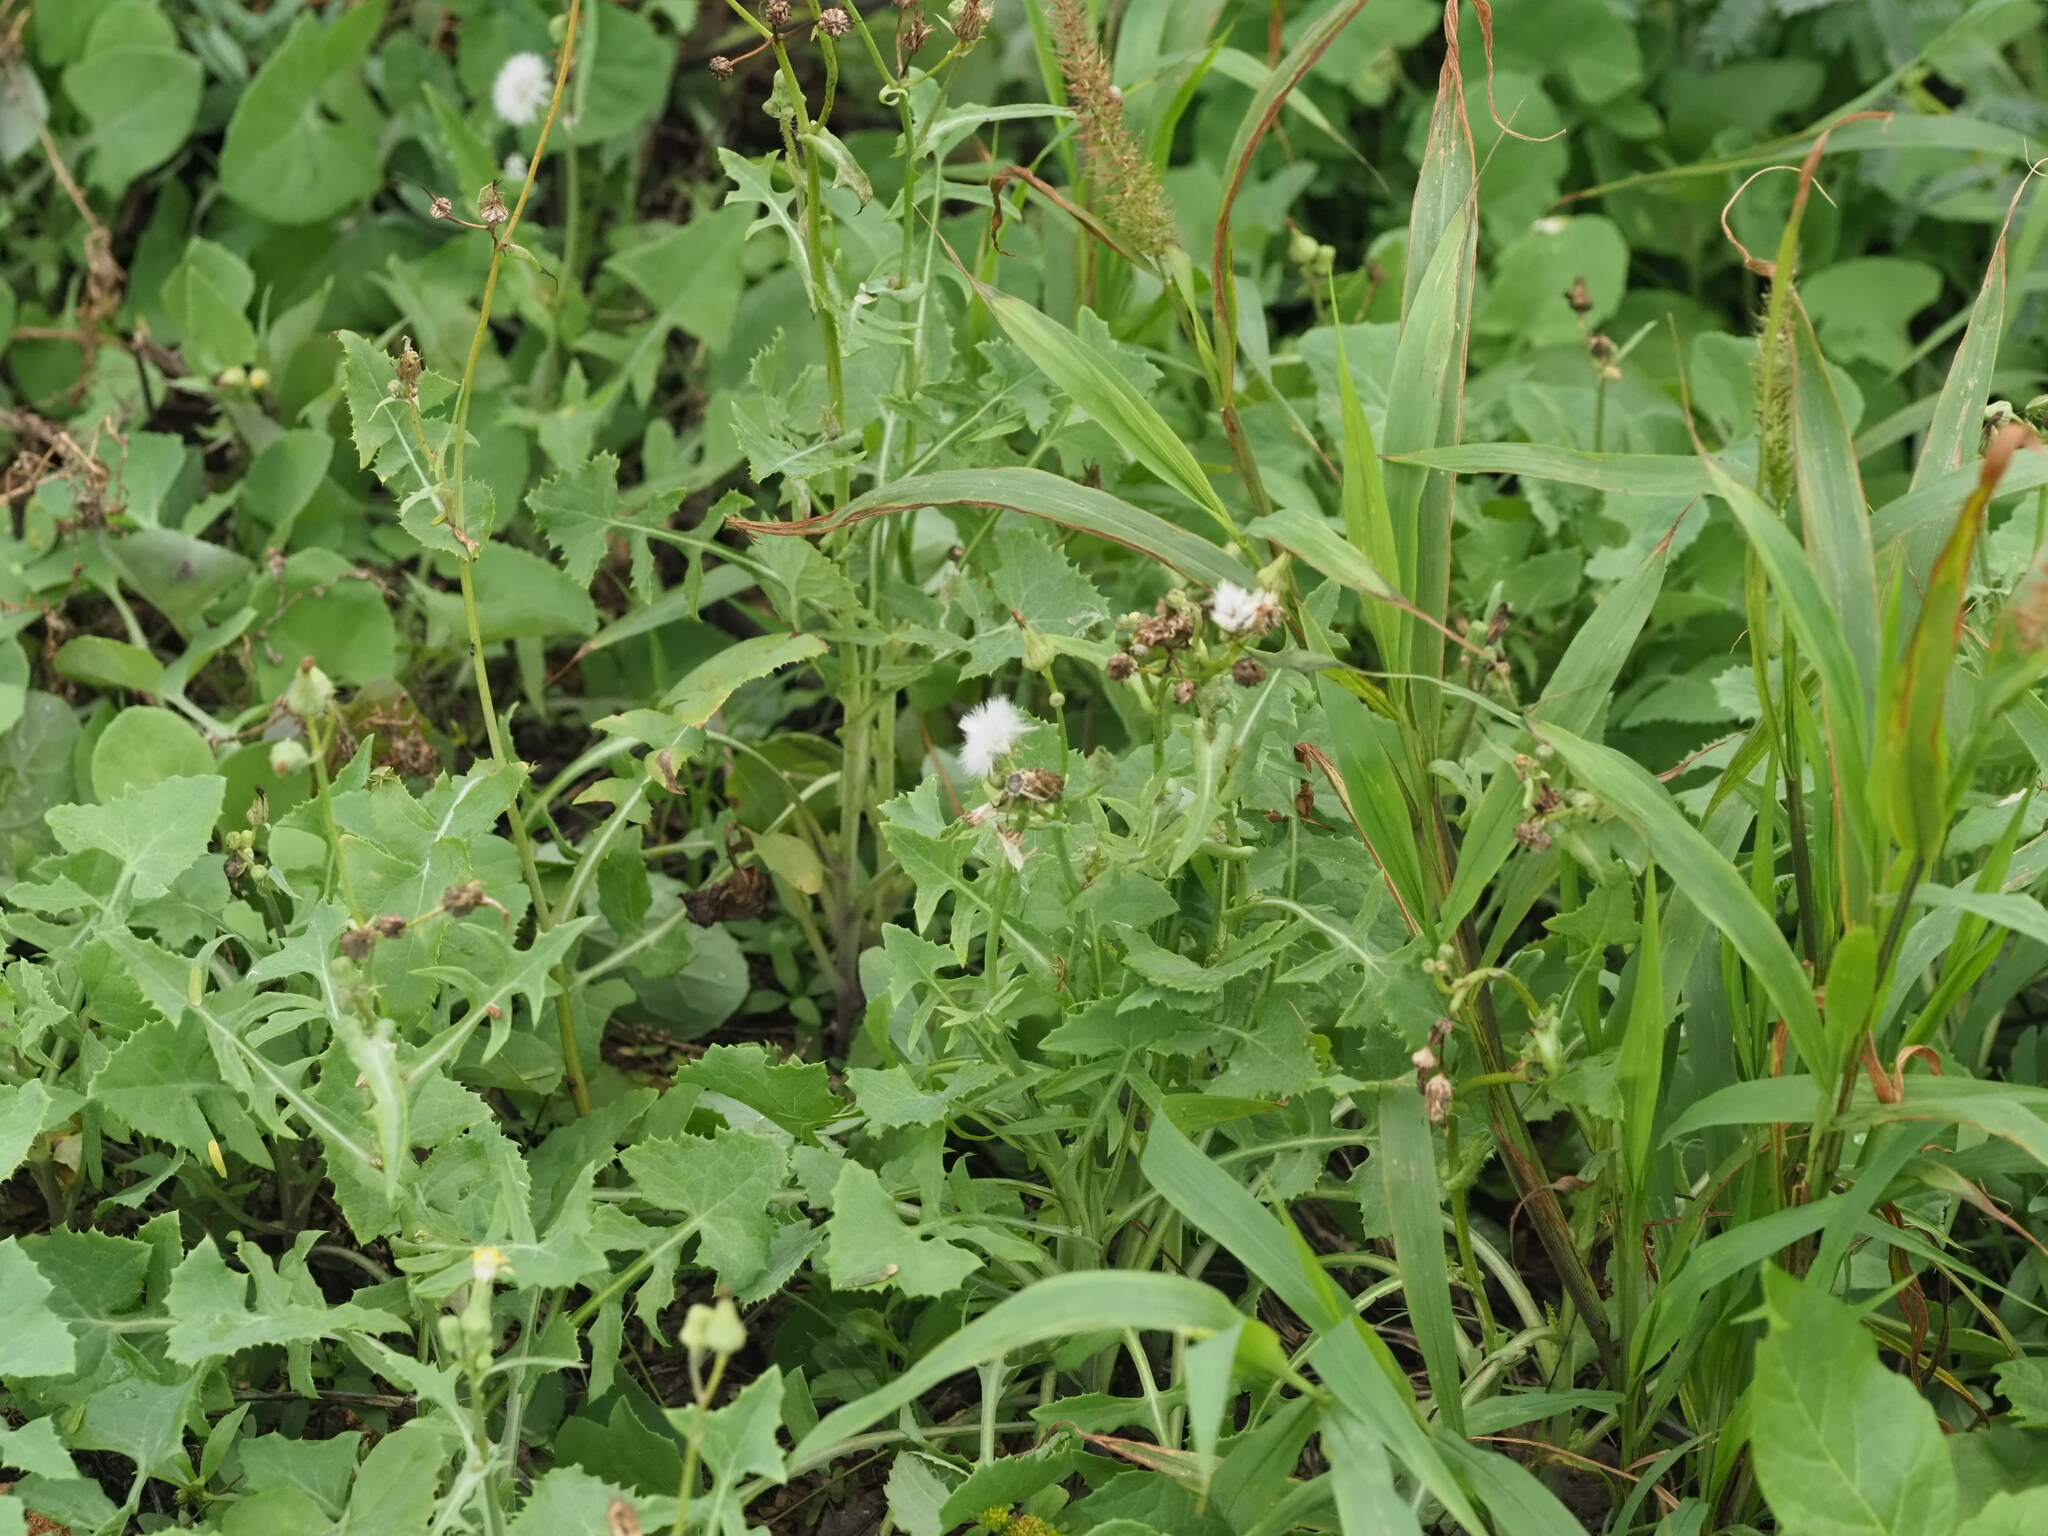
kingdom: Plantae
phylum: Tracheophyta
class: Magnoliopsida
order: Asterales
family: Asteraceae
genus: Sonchus
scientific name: Sonchus oleraceus
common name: Common sowthistle
